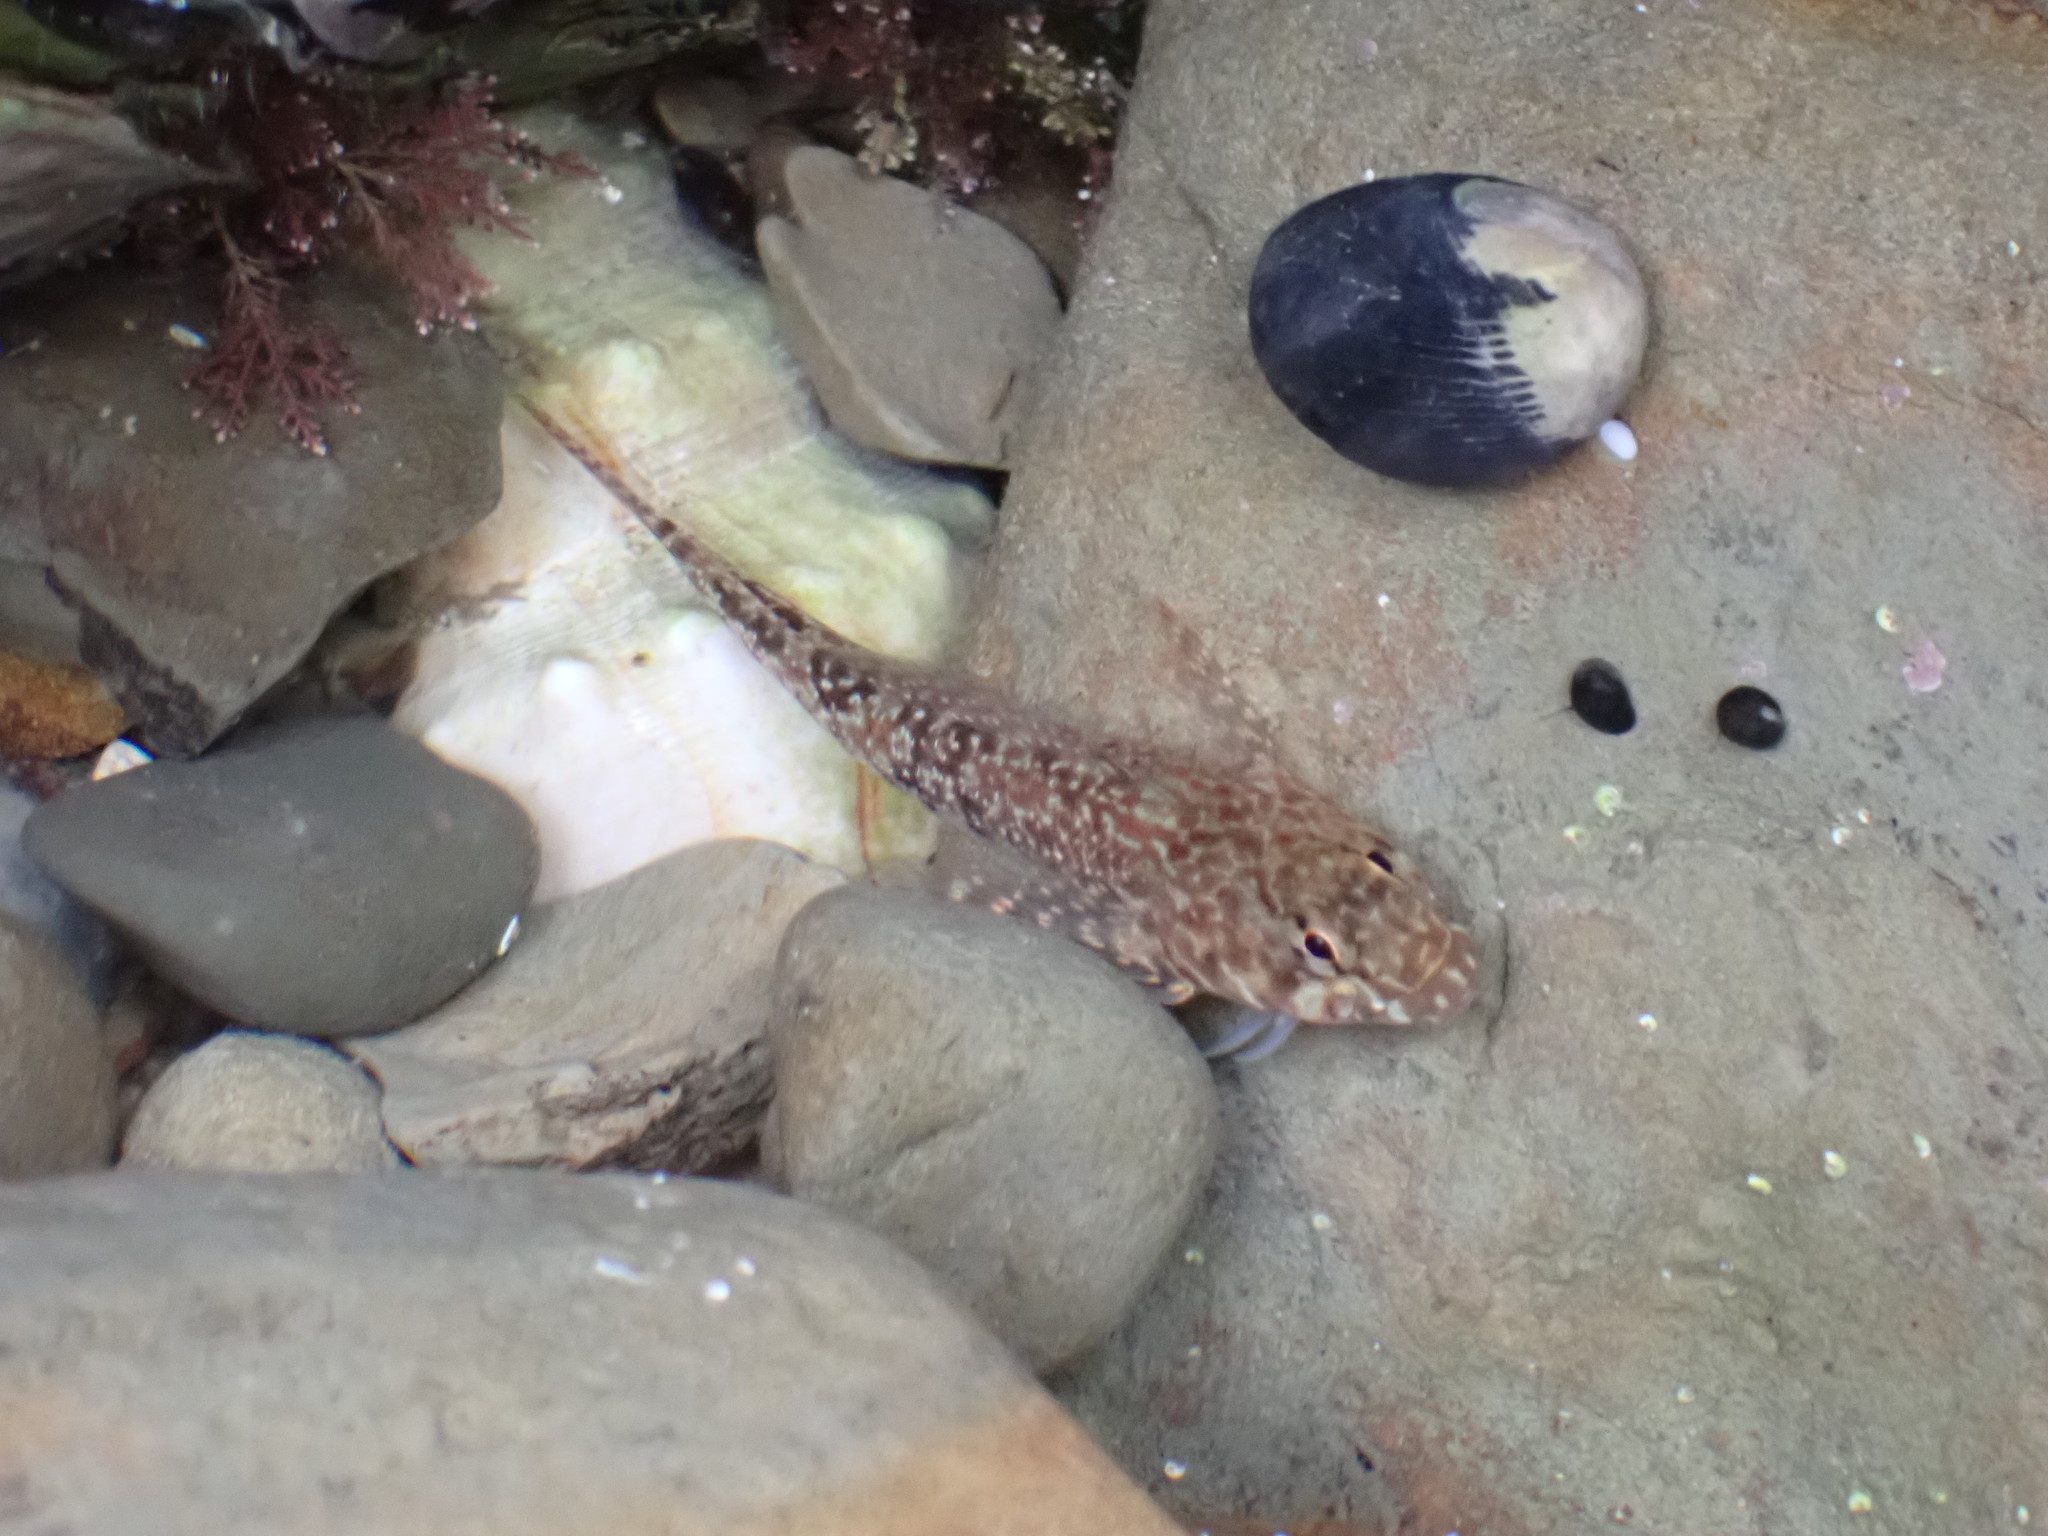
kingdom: Animalia
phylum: Chordata
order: Perciformes
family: Tripterygiidae
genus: Bellapiscis
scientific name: Bellapiscis medius
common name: Twister
